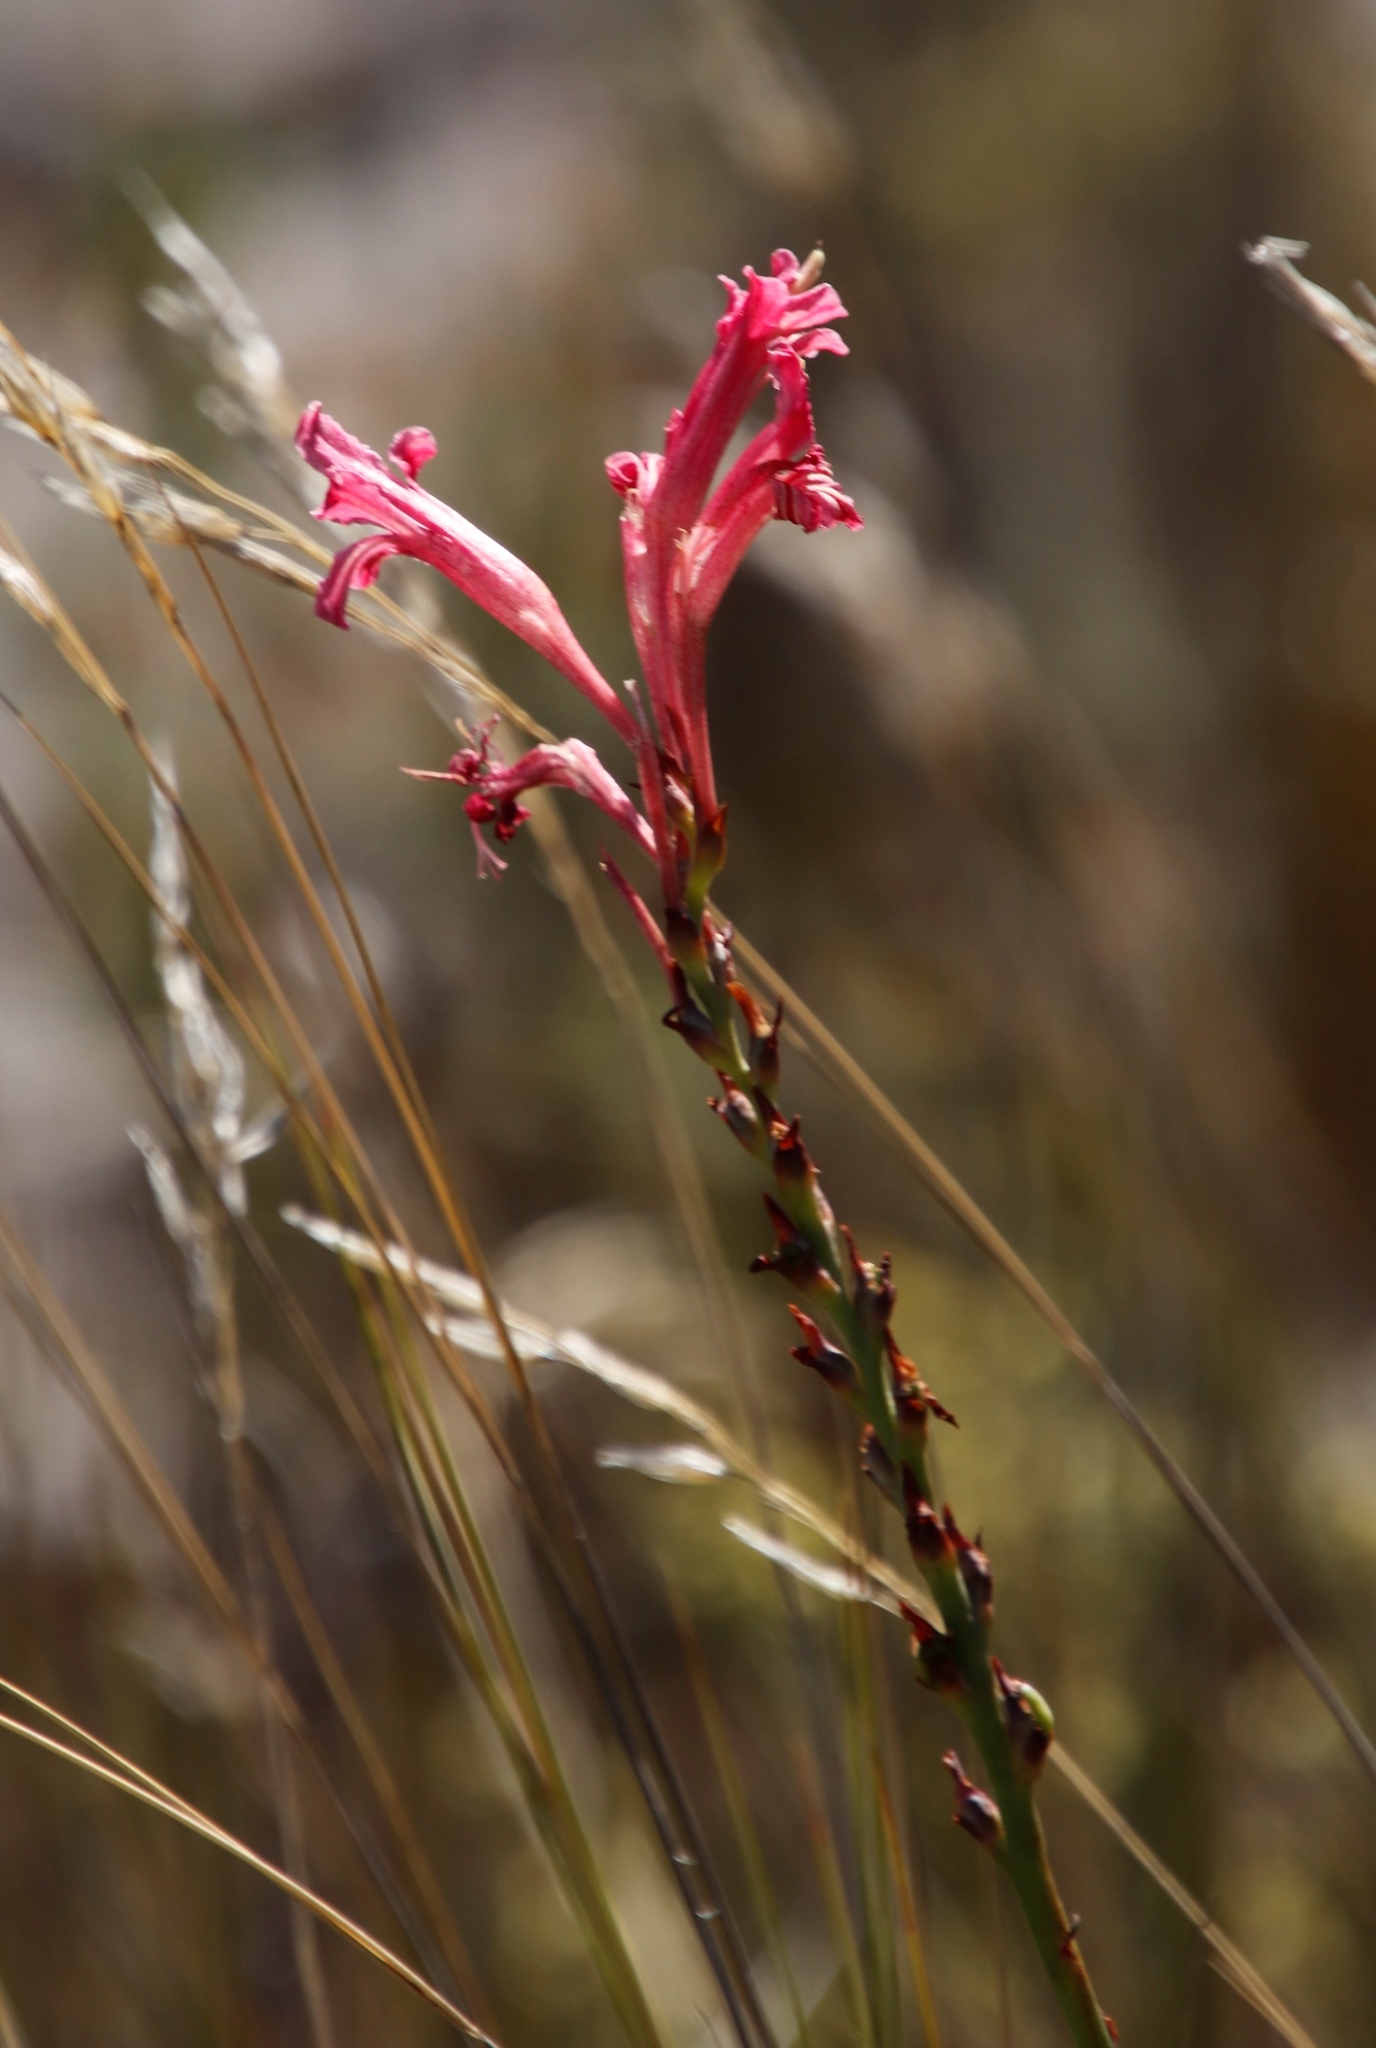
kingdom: Plantae
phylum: Tracheophyta
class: Liliopsida
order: Asparagales
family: Iridaceae
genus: Tritoniopsis
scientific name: Tritoniopsis antholyza
